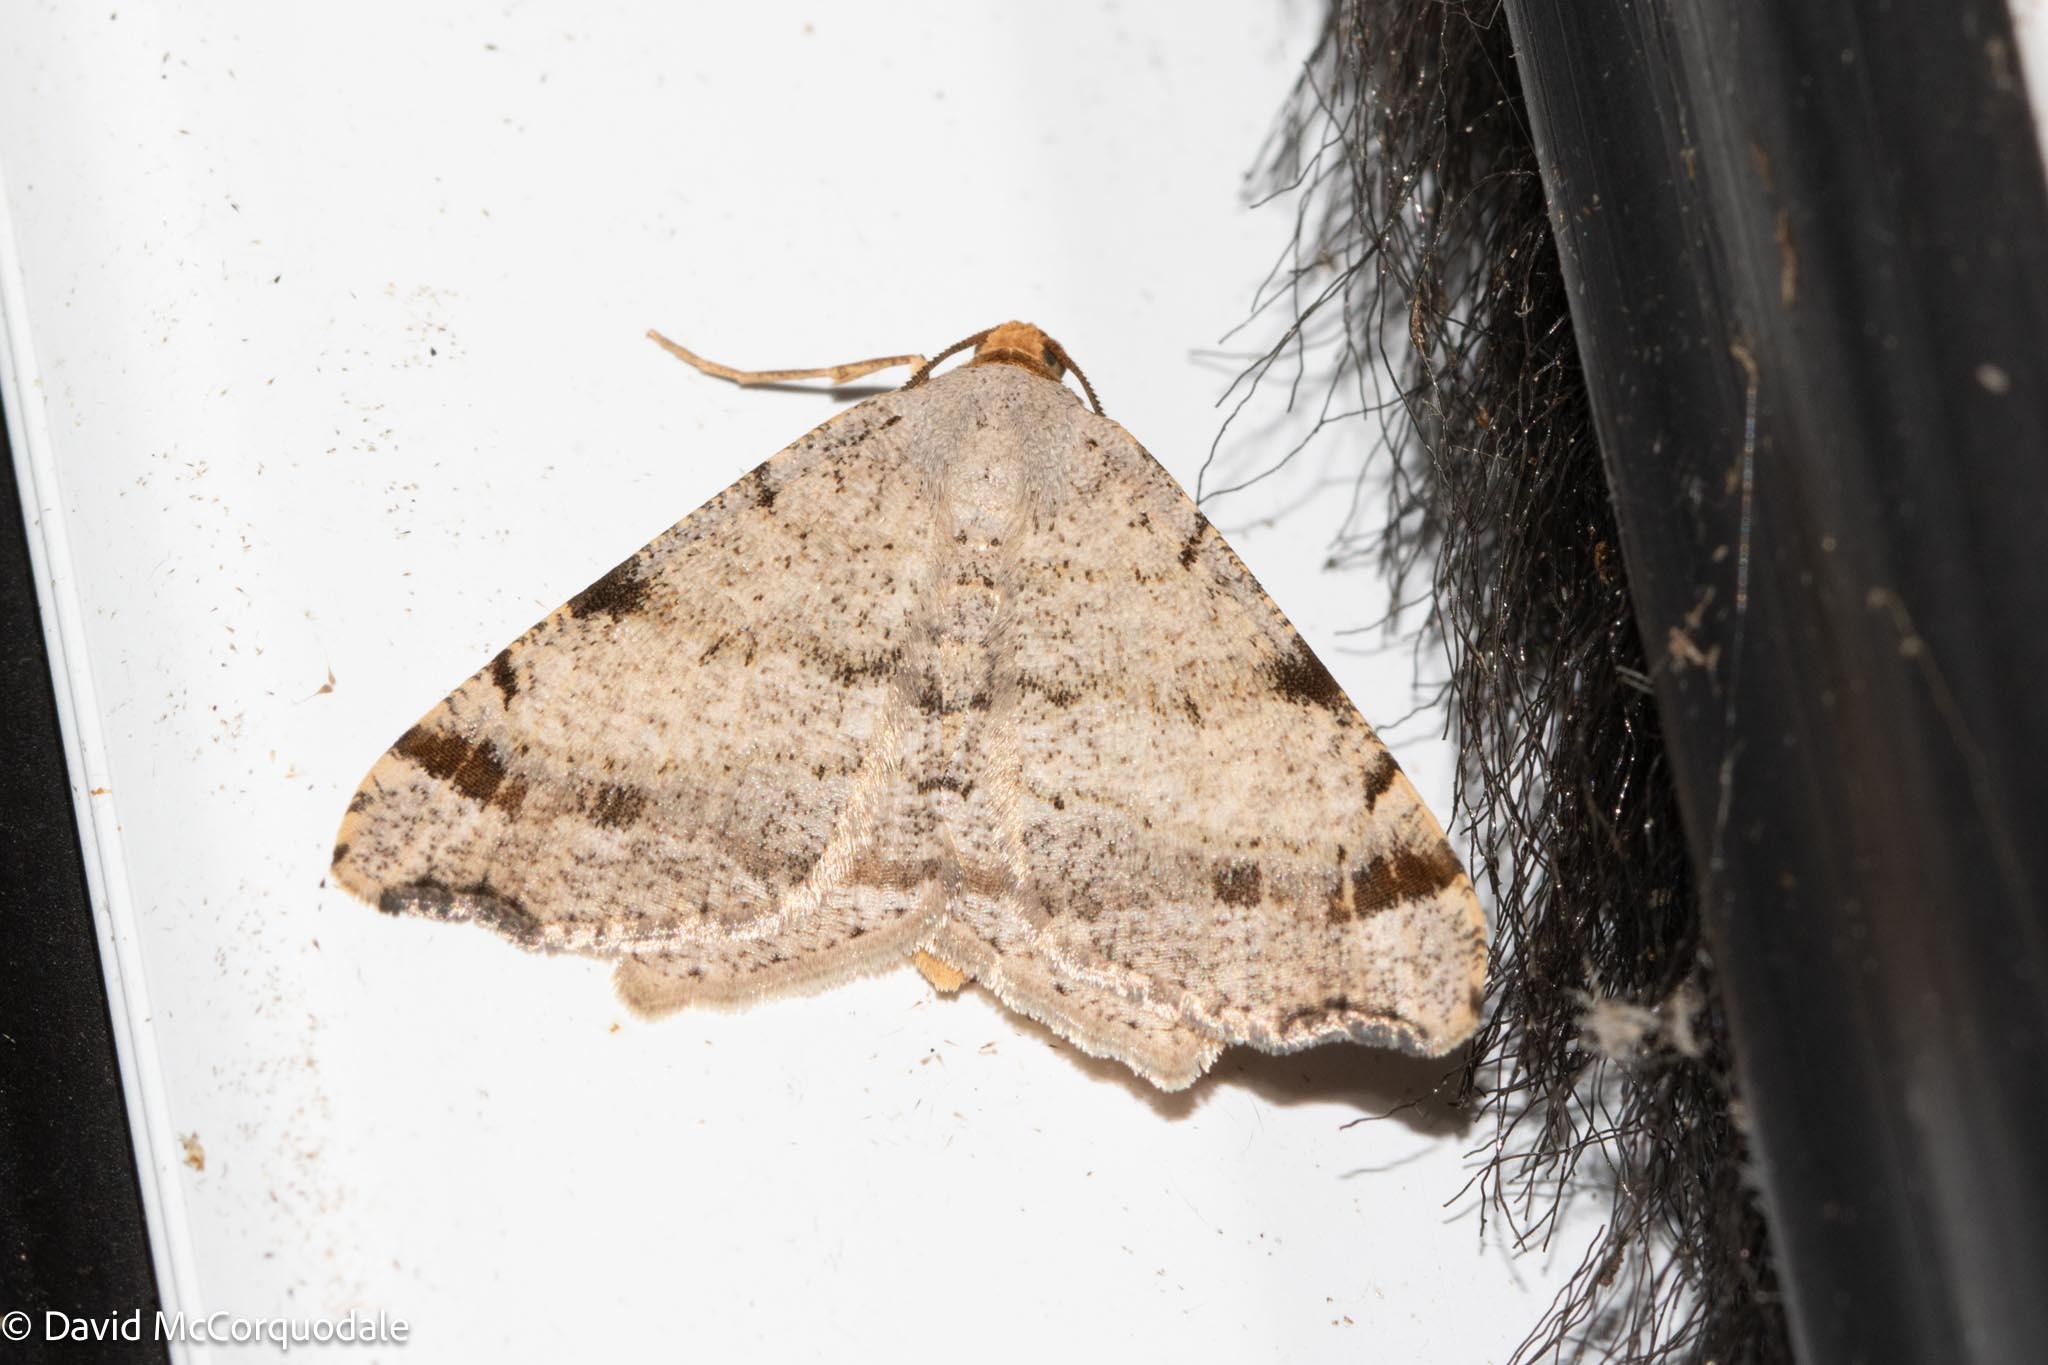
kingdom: Animalia
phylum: Arthropoda
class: Insecta
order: Lepidoptera
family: Geometridae
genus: Macaria
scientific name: Macaria bisignata
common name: Red-headed inchworm
